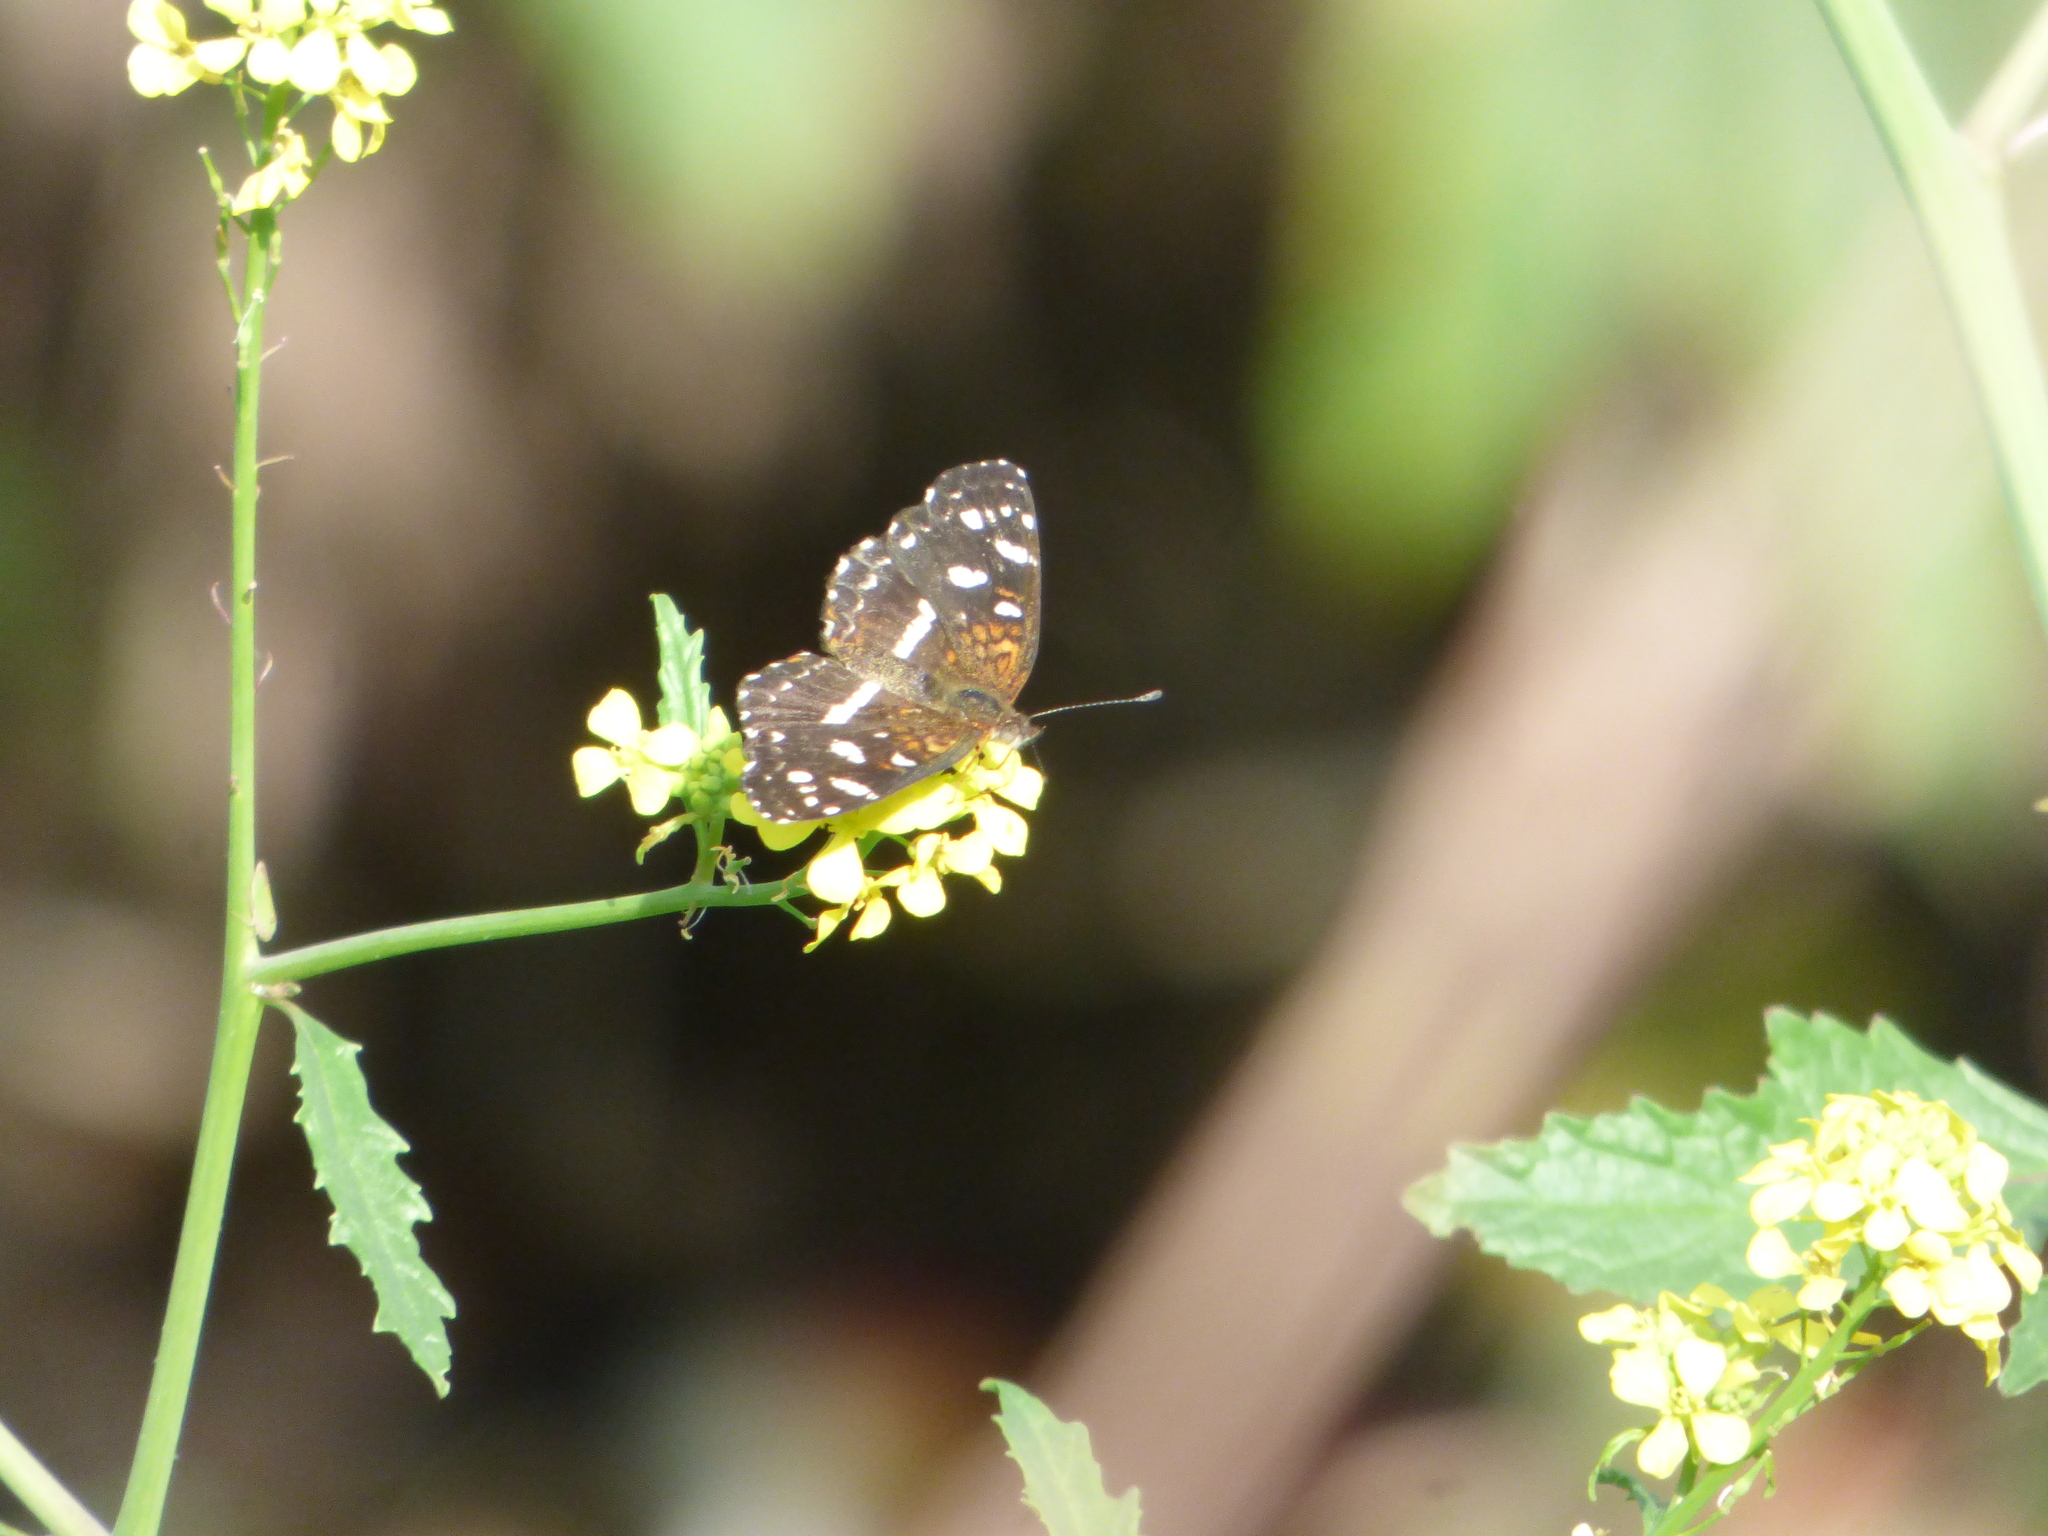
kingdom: Animalia
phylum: Arthropoda
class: Insecta
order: Lepidoptera
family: Nymphalidae
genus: Ortilia
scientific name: Ortilia ithra
